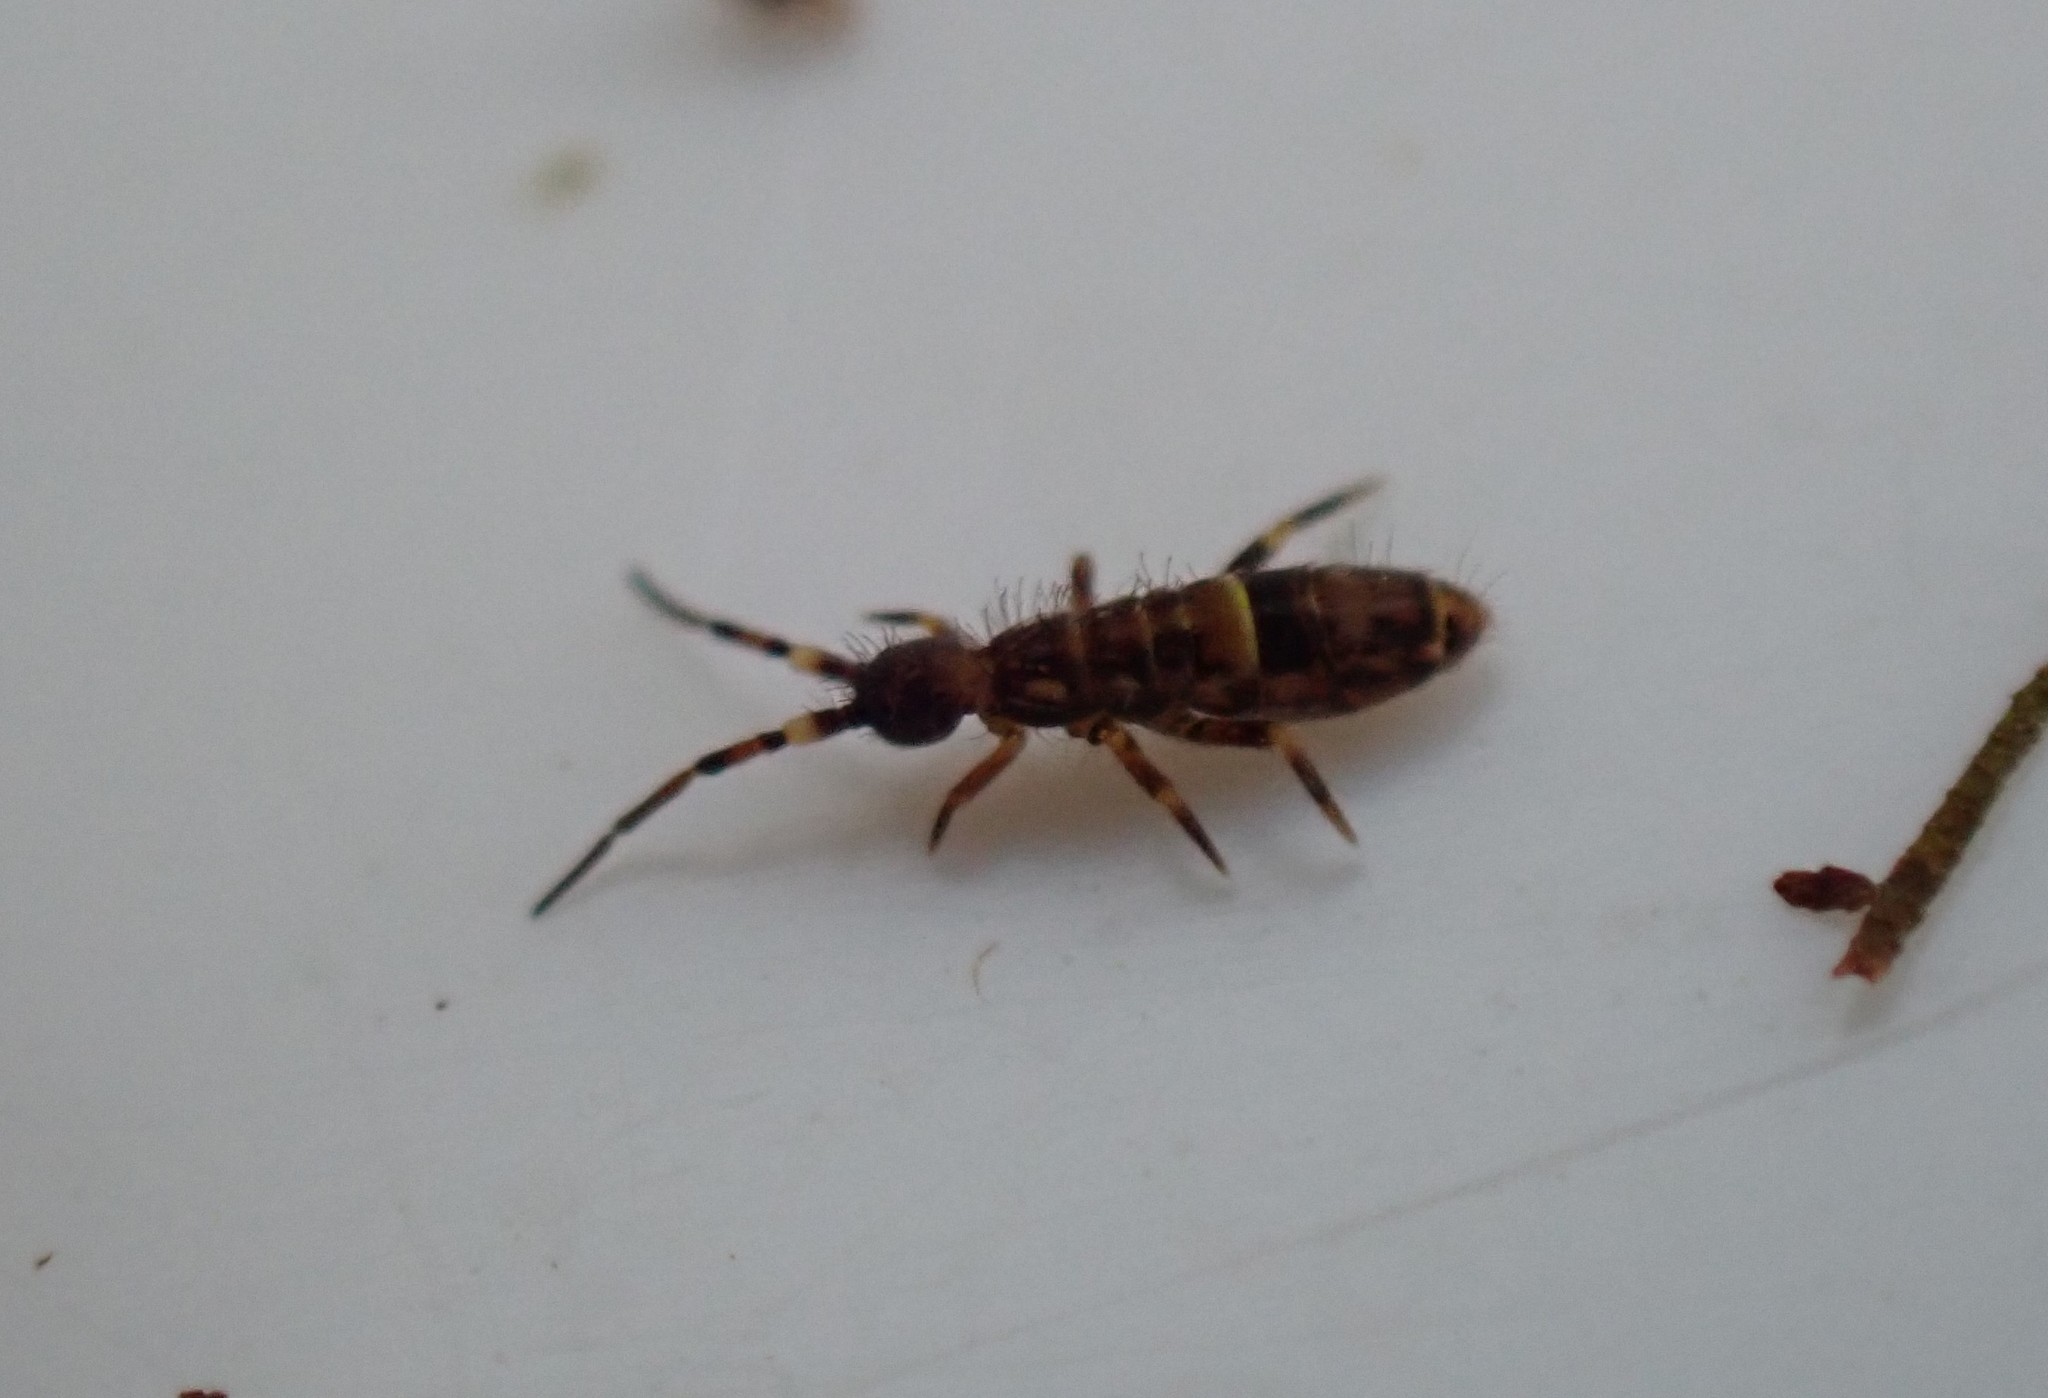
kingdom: Animalia
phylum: Arthropoda
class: Collembola
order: Entomobryomorpha
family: Orchesellidae
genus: Orchesella
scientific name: Orchesella cincta
